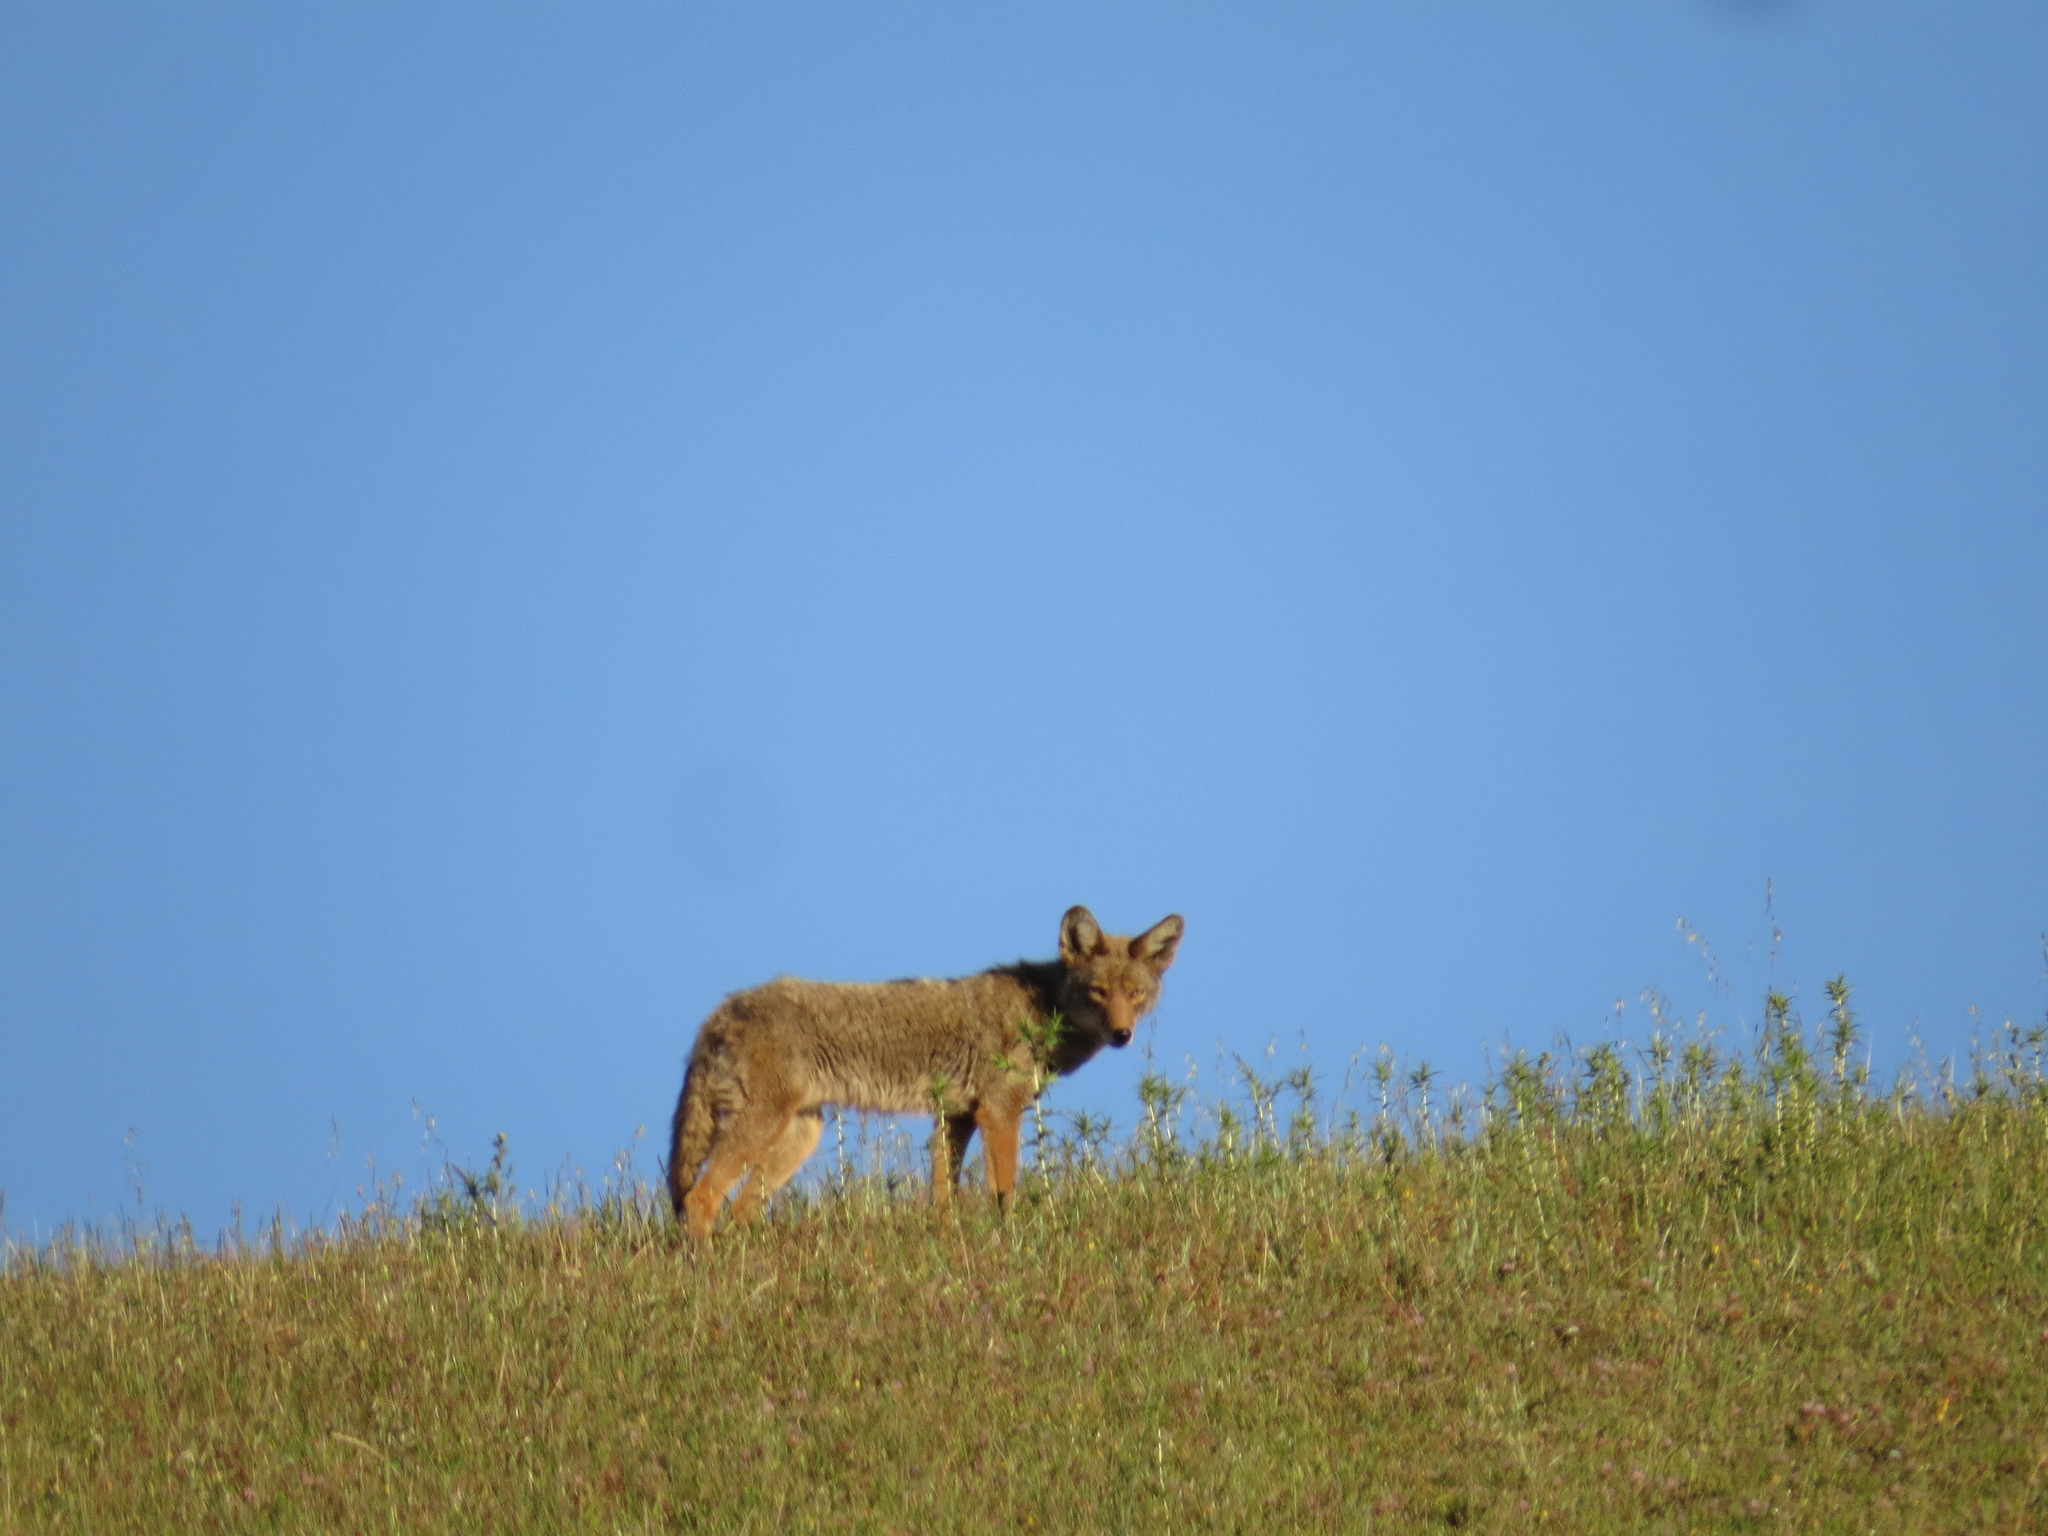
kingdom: Animalia
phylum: Chordata
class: Mammalia
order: Carnivora
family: Canidae
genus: Canis
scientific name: Canis latrans
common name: Coyote
